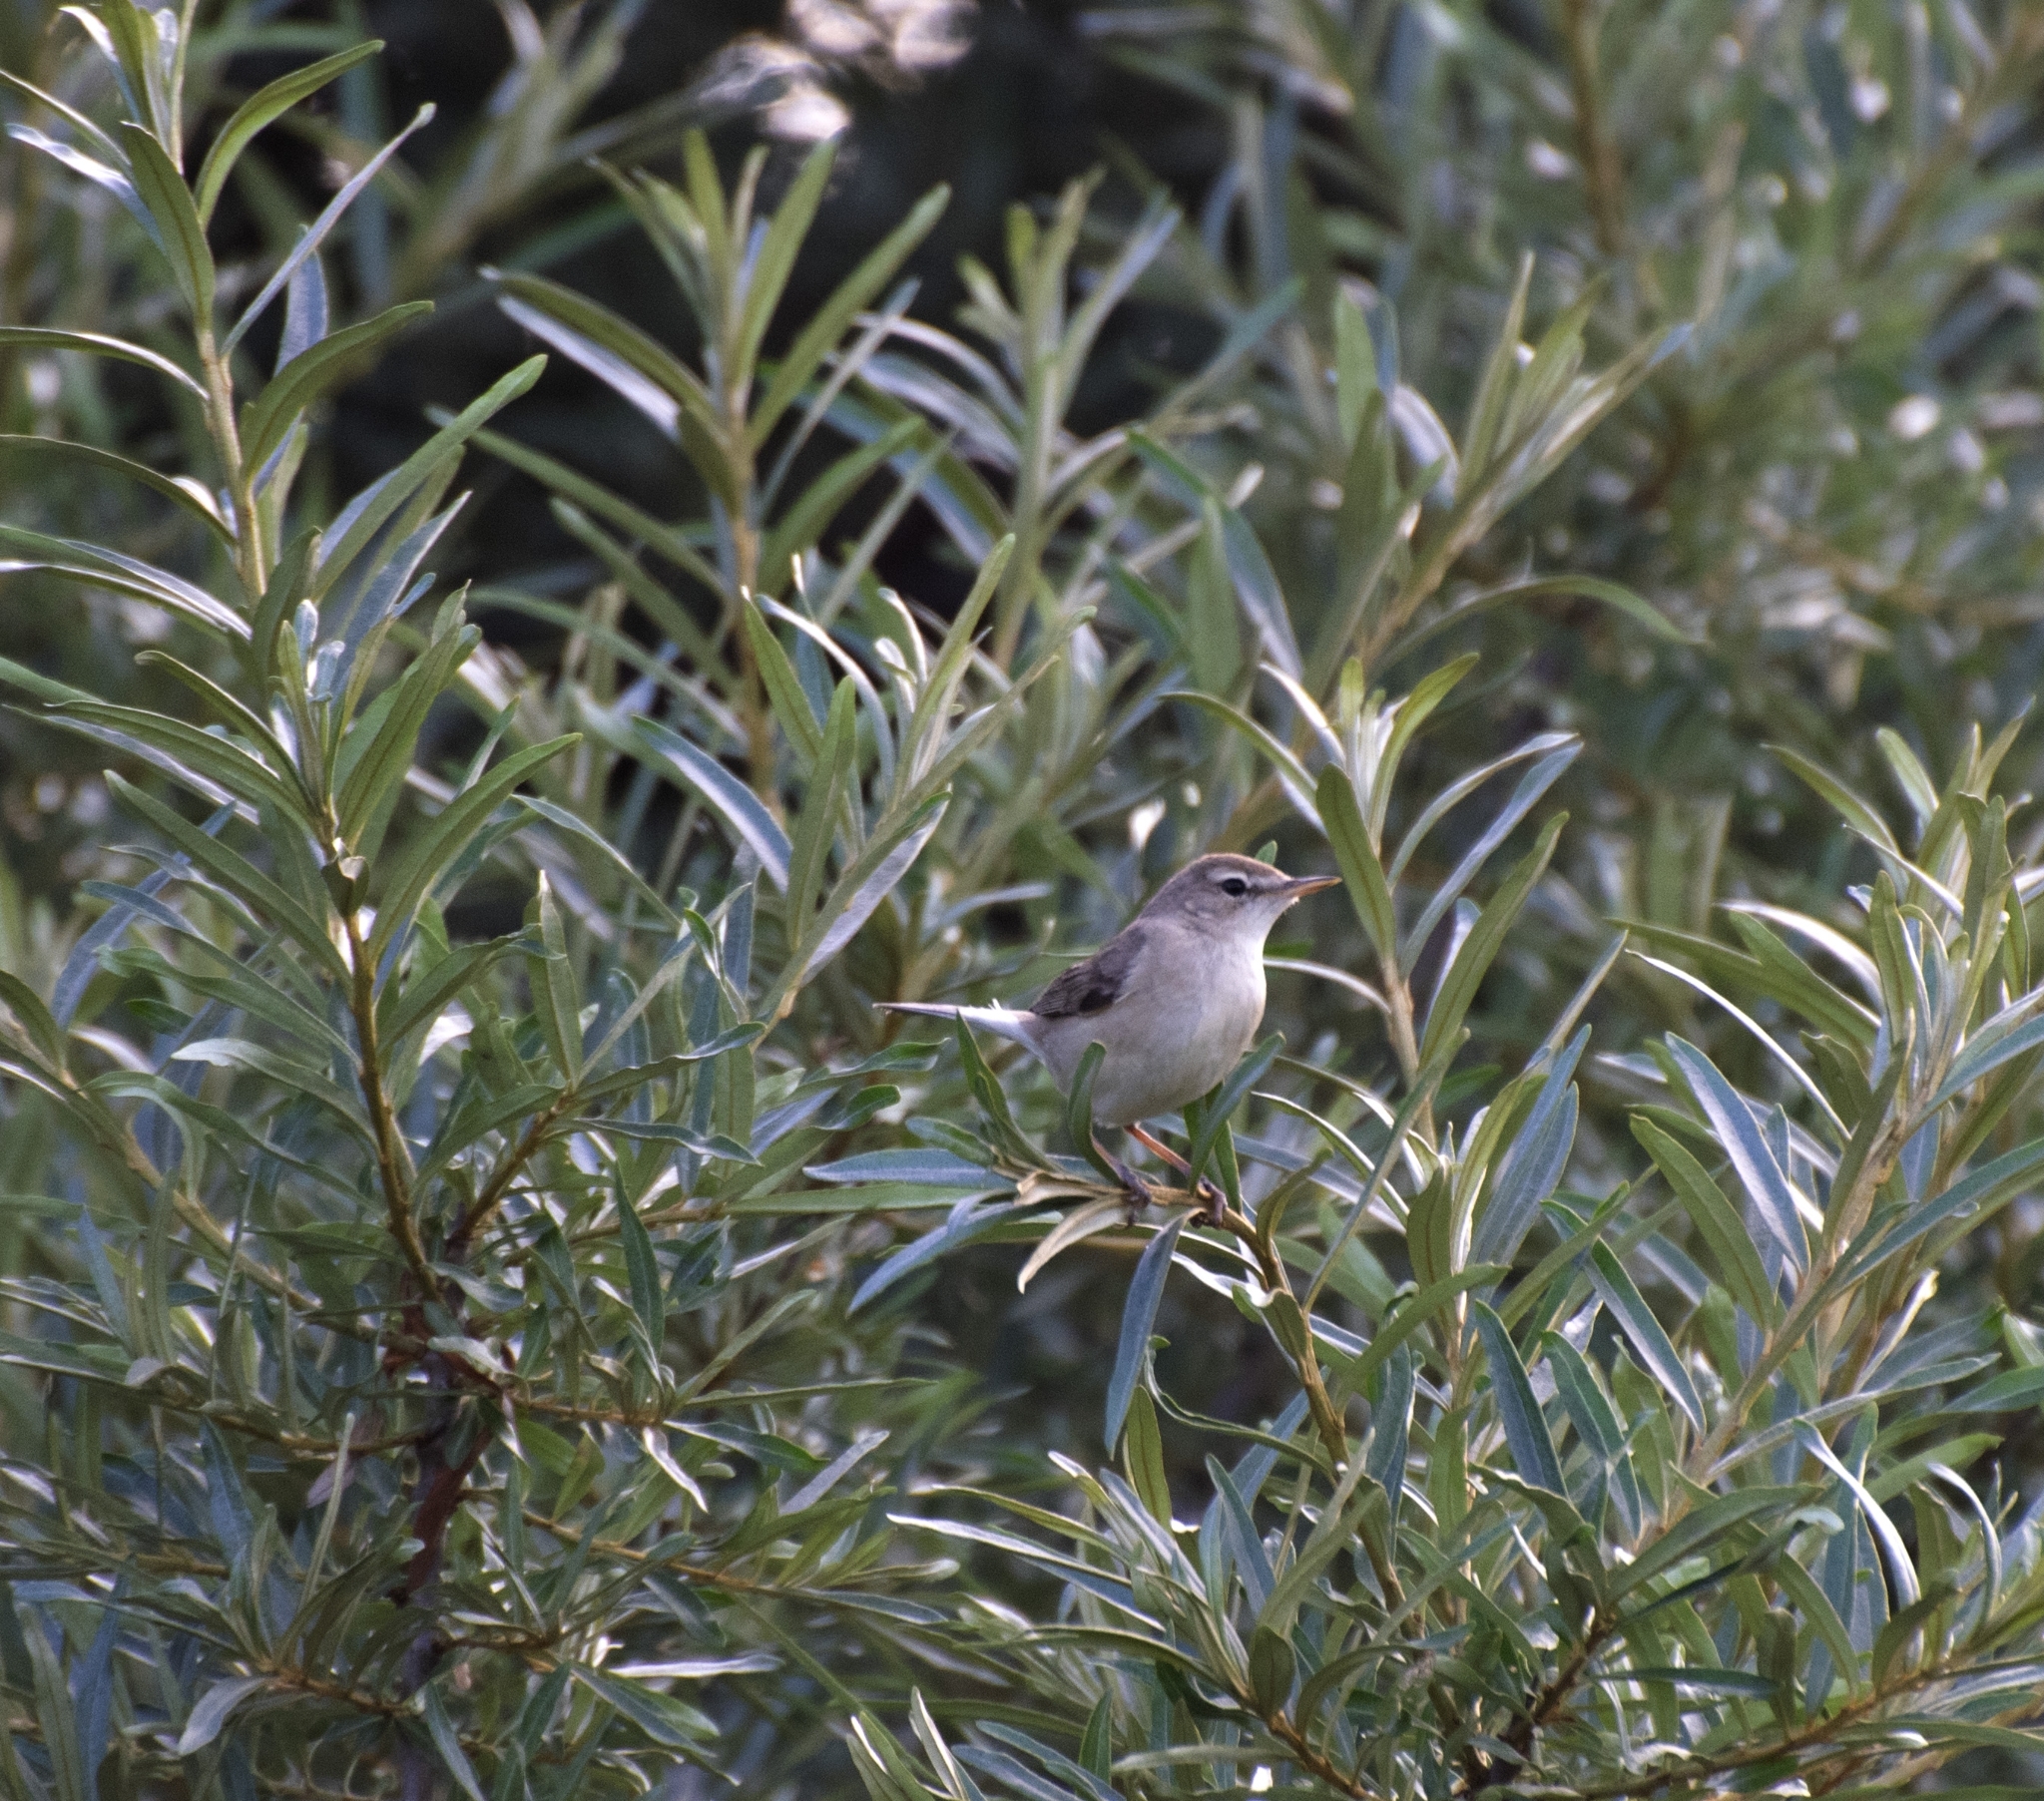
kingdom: Animalia
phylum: Chordata
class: Aves
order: Passeriformes
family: Acrocephalidae
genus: Iduna
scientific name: Iduna caligata
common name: Booted warbler
